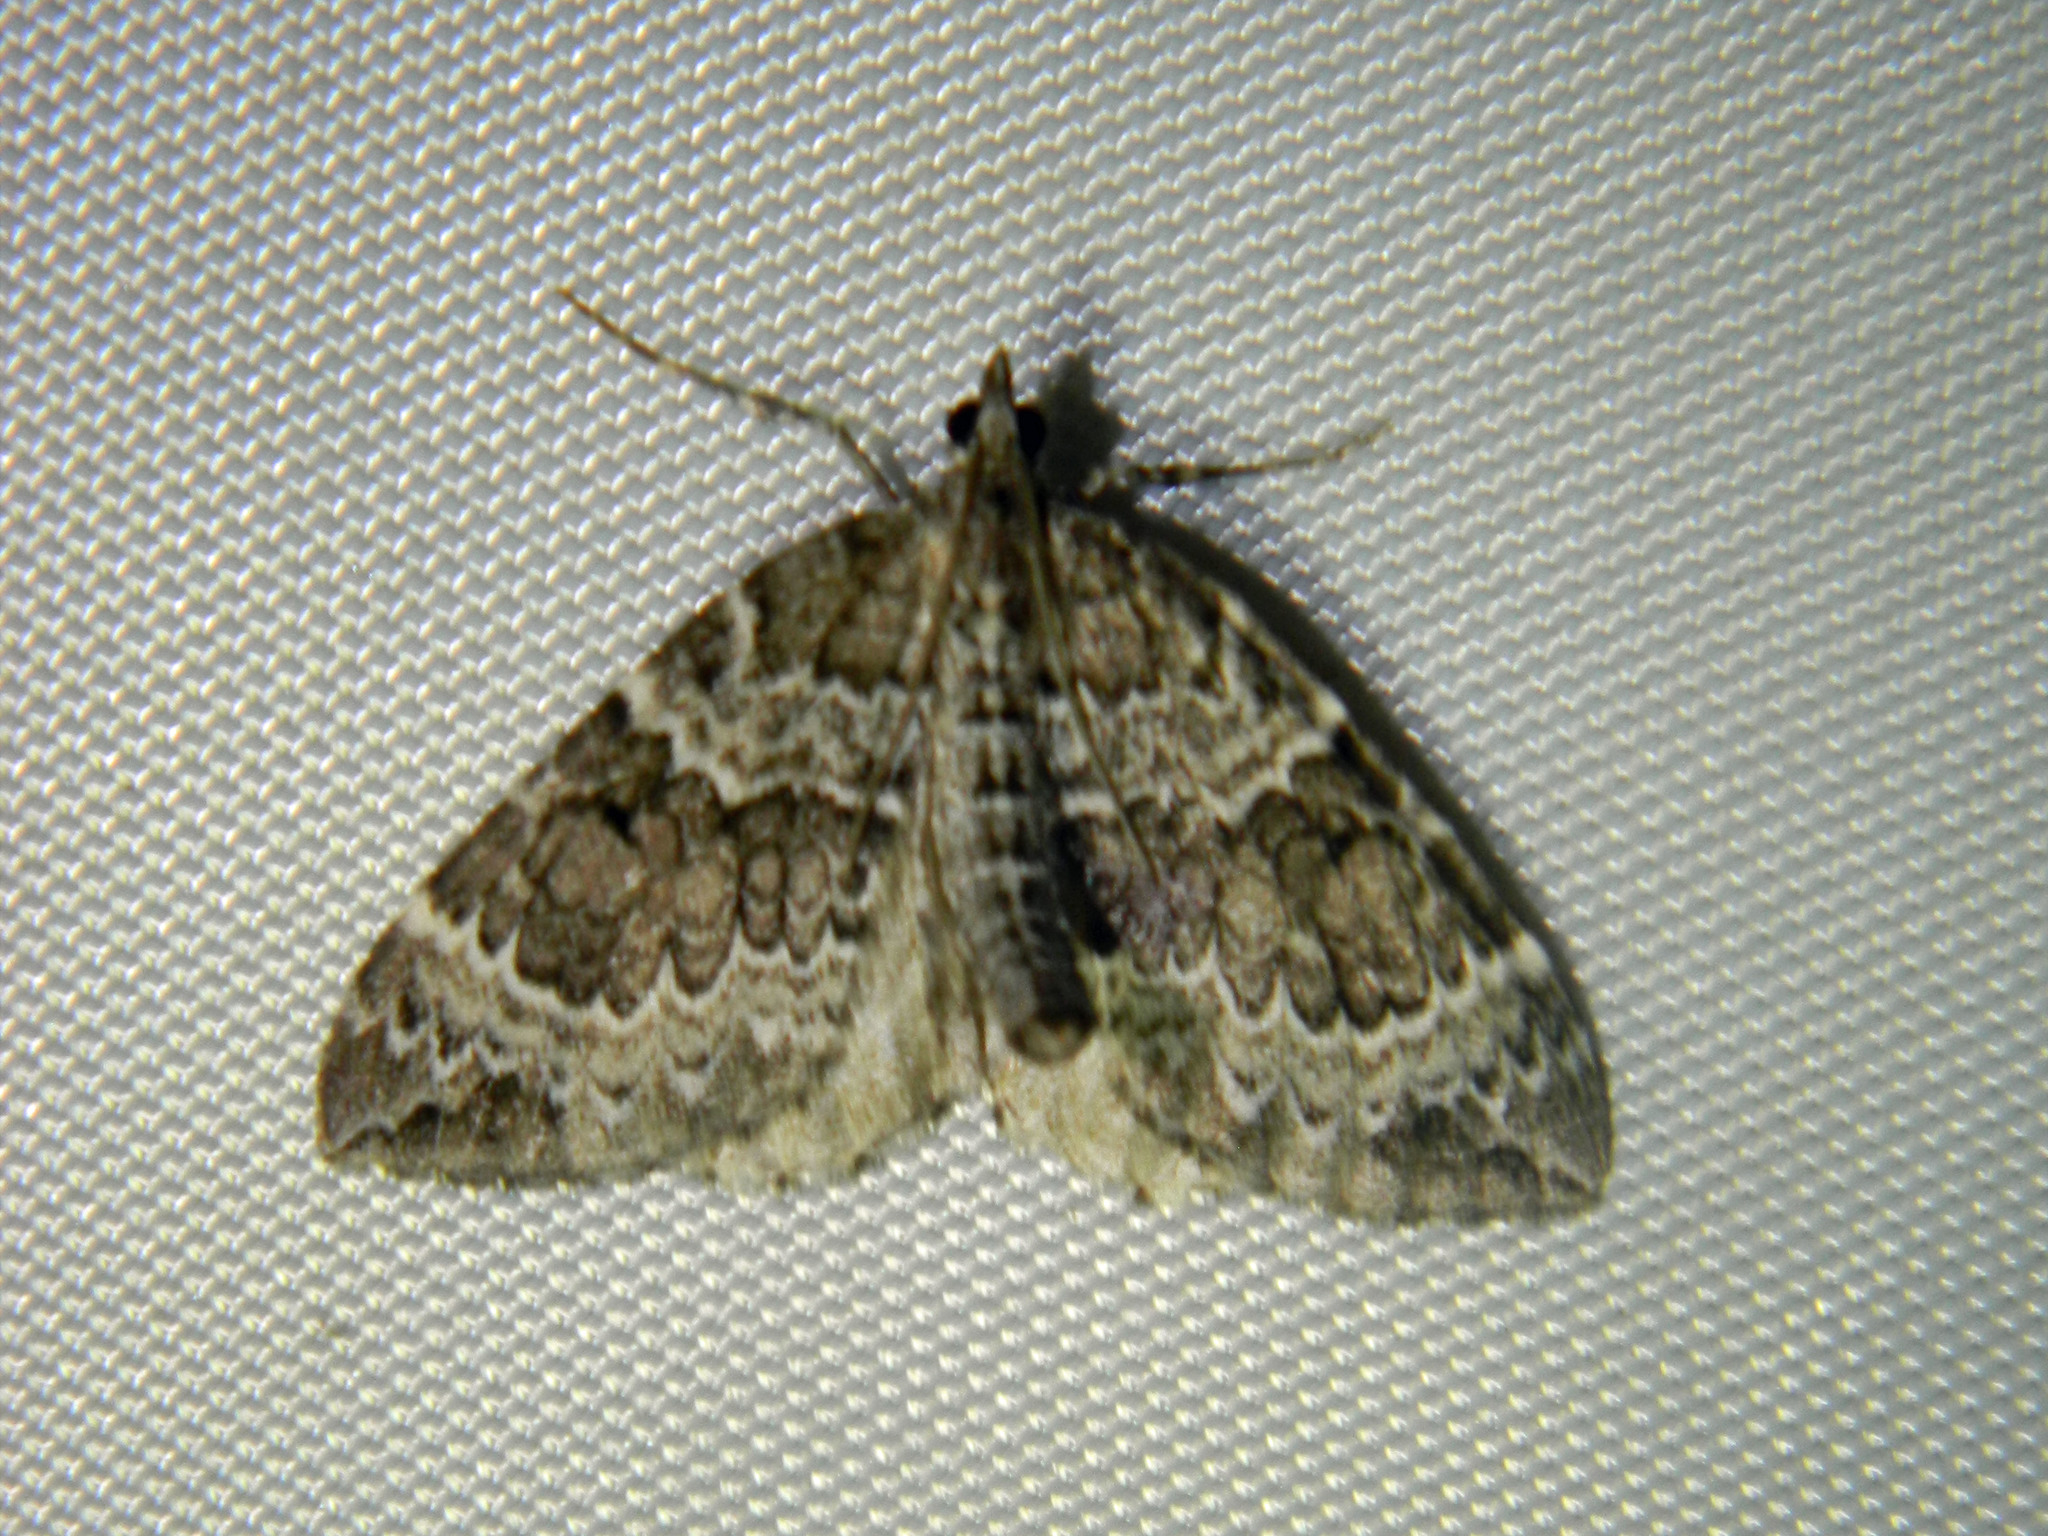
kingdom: Animalia
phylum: Arthropoda
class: Insecta
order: Lepidoptera
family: Geometridae
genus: Eulithis
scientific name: Eulithis explanata
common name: White eulithis
